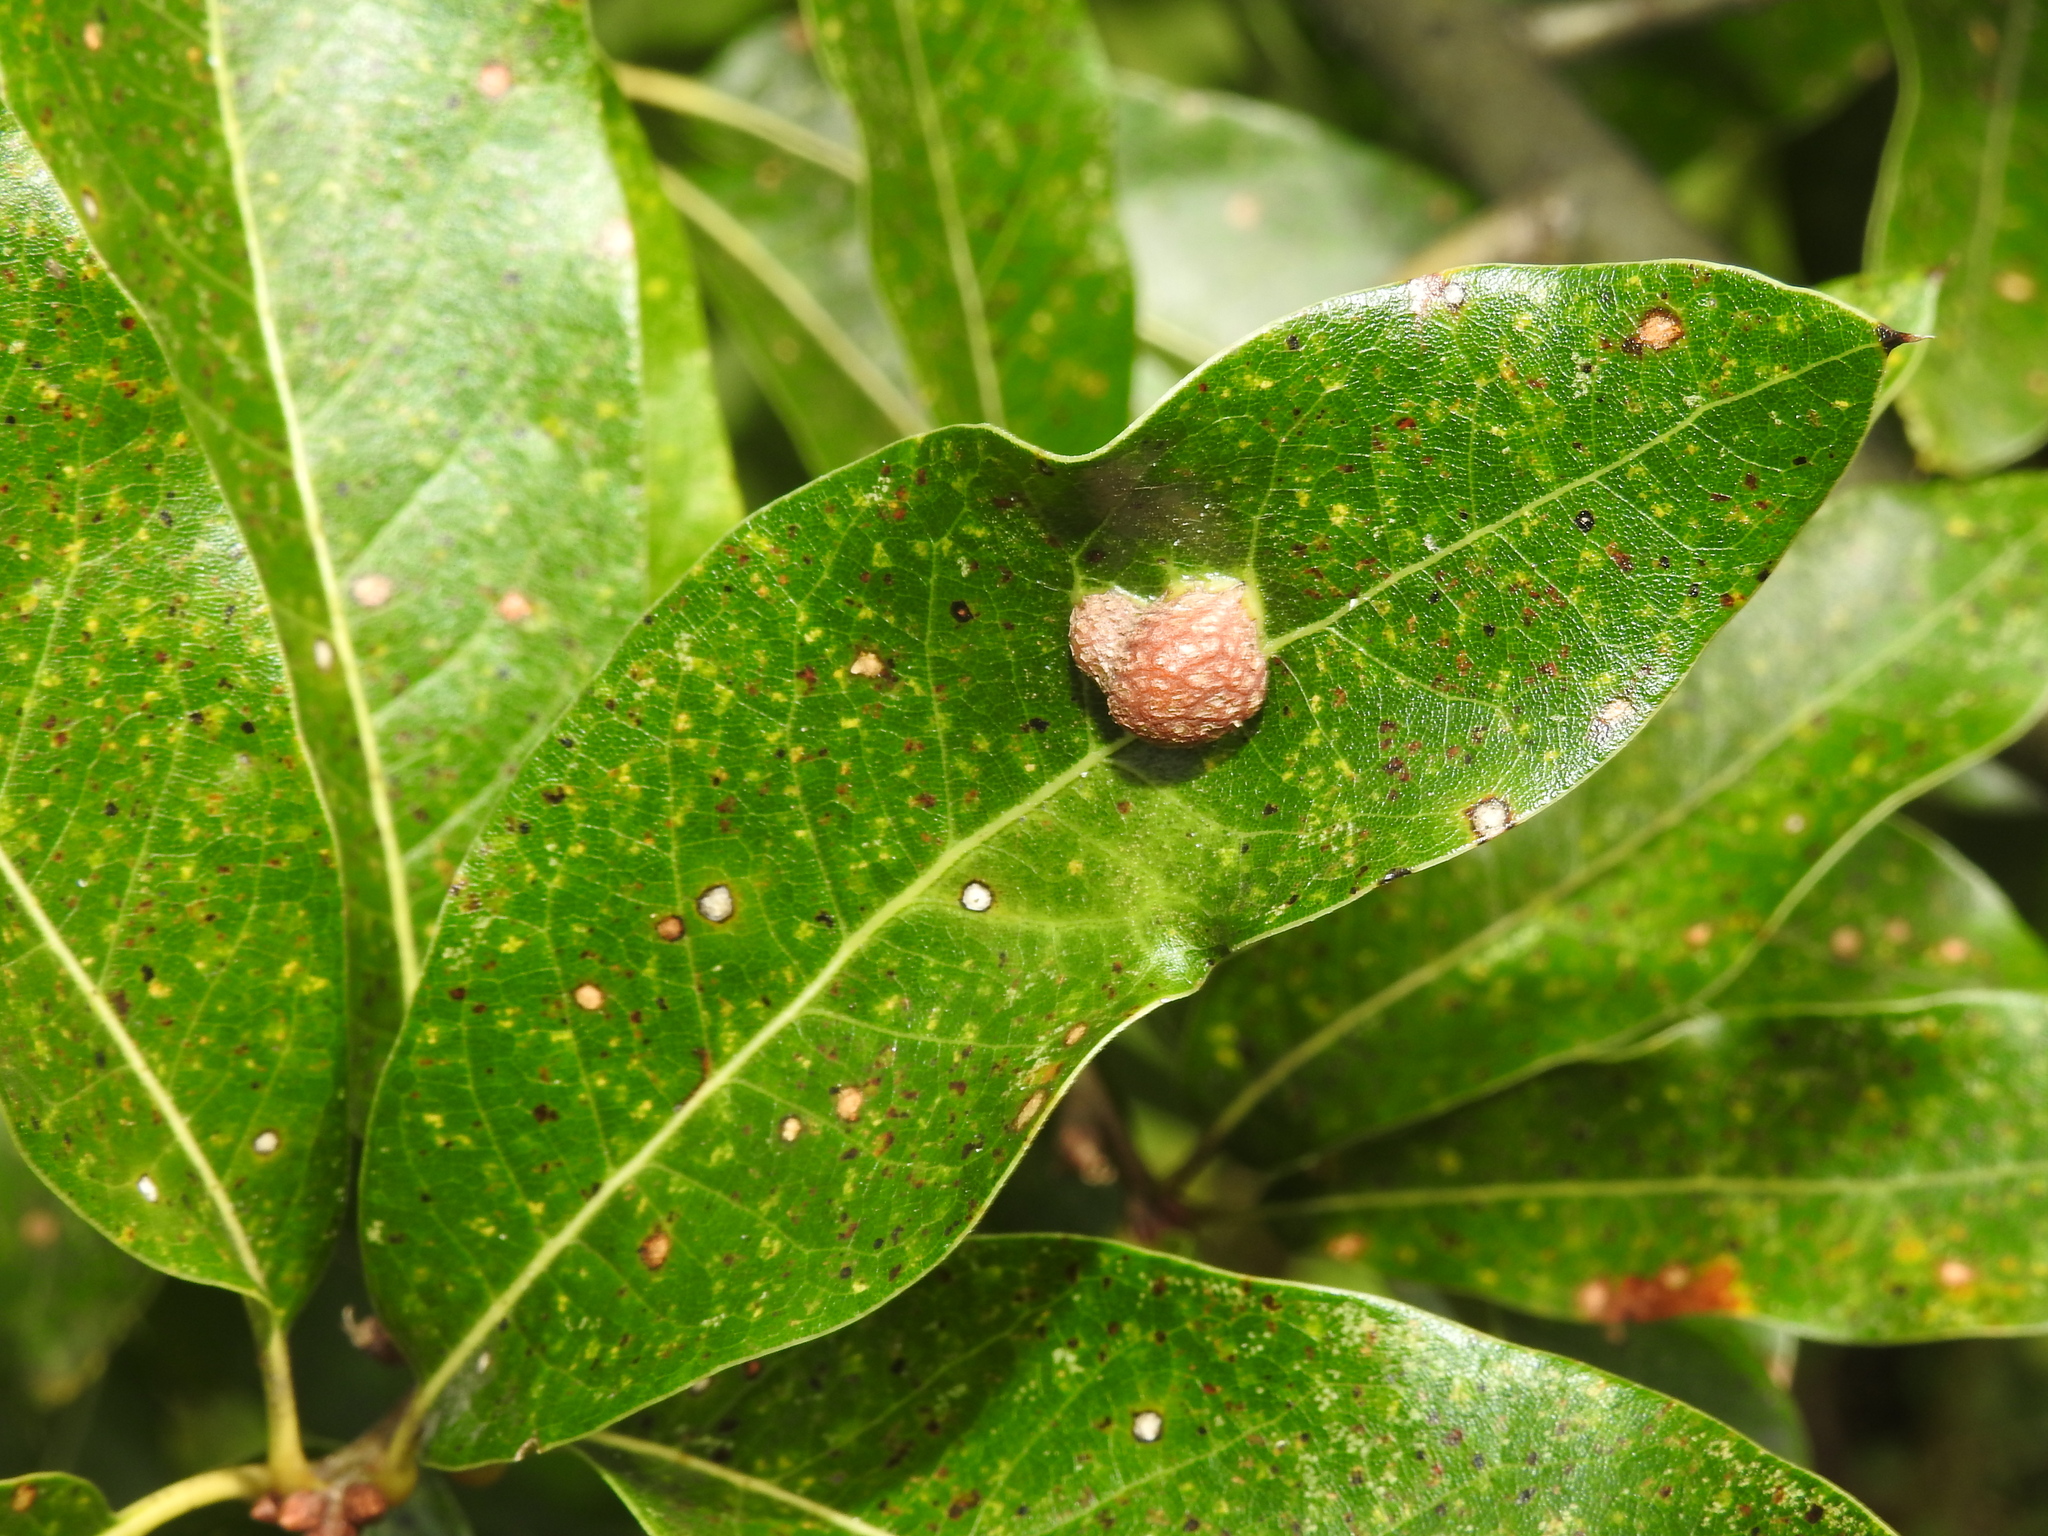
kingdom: Animalia
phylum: Arthropoda
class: Insecta
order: Diptera
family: Cecidomyiidae
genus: Polystepha
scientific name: Polystepha pilulae
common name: Oak leaf gall midge
